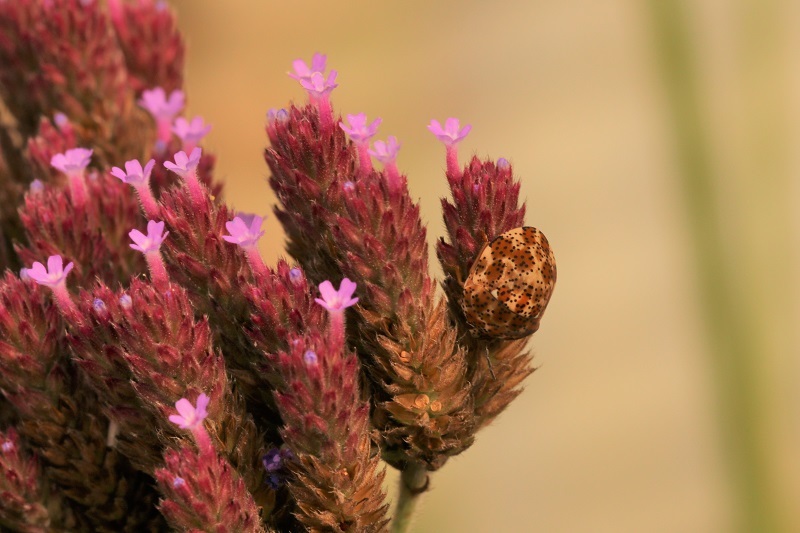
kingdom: Animalia
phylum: Arthropoda
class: Insecta
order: Hemiptera
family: Scutelleridae
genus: Sphaerocoris
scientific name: Sphaerocoris
